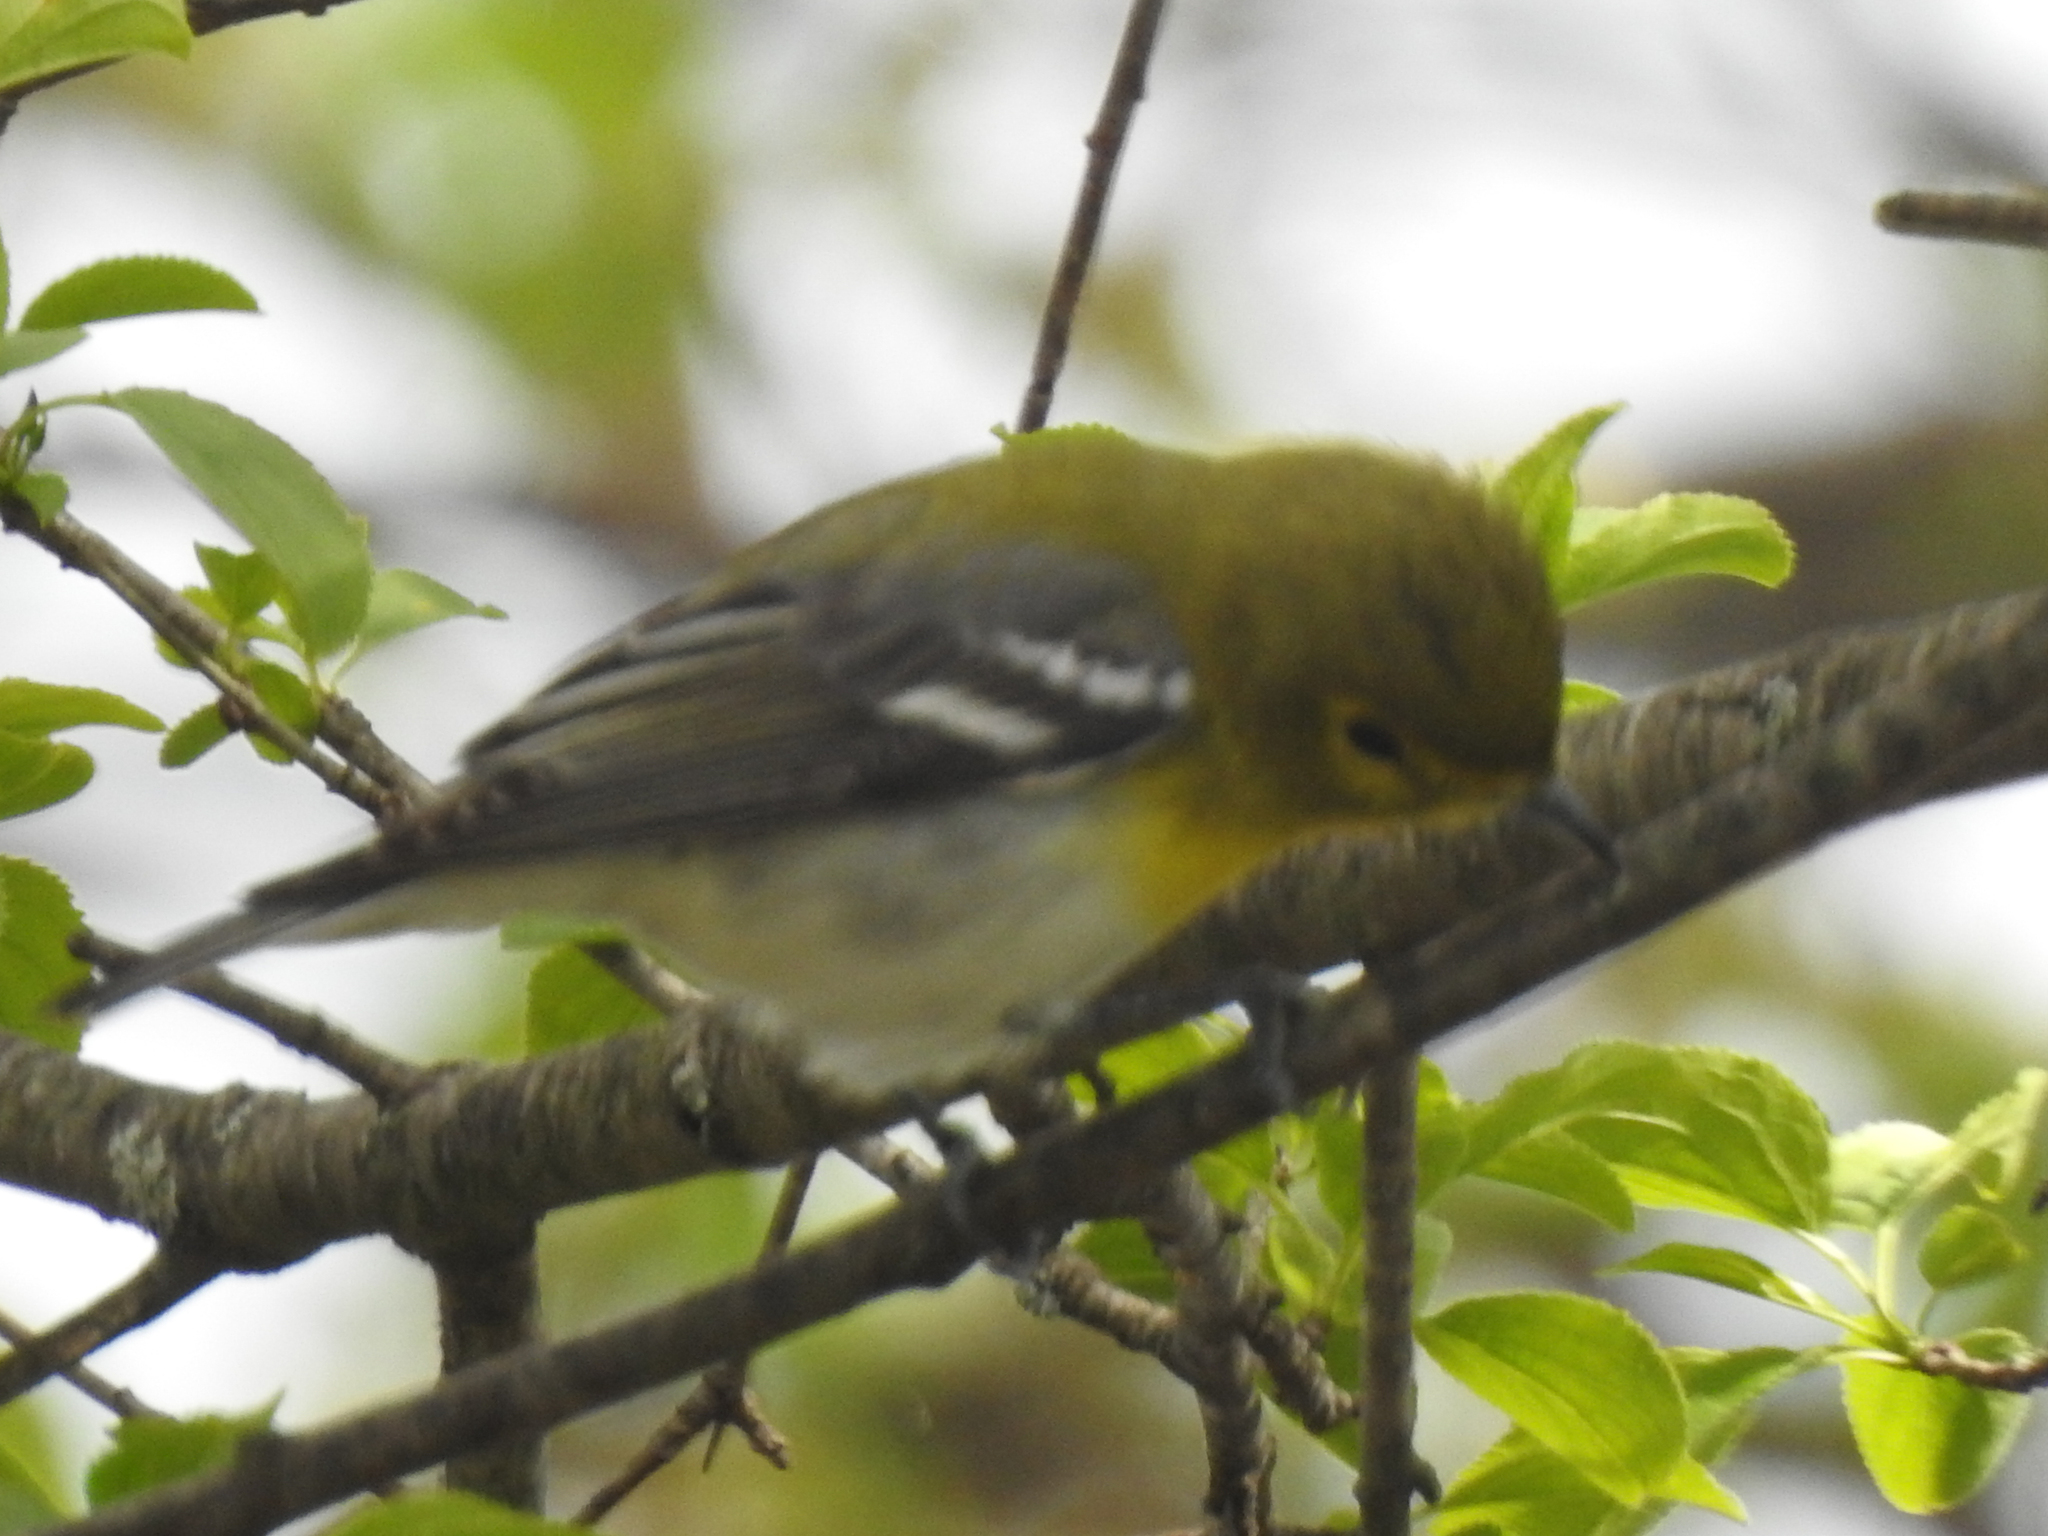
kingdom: Animalia
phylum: Chordata
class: Aves
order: Passeriformes
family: Vireonidae
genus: Vireo
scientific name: Vireo flavifrons
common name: Yellow-throated vireo
